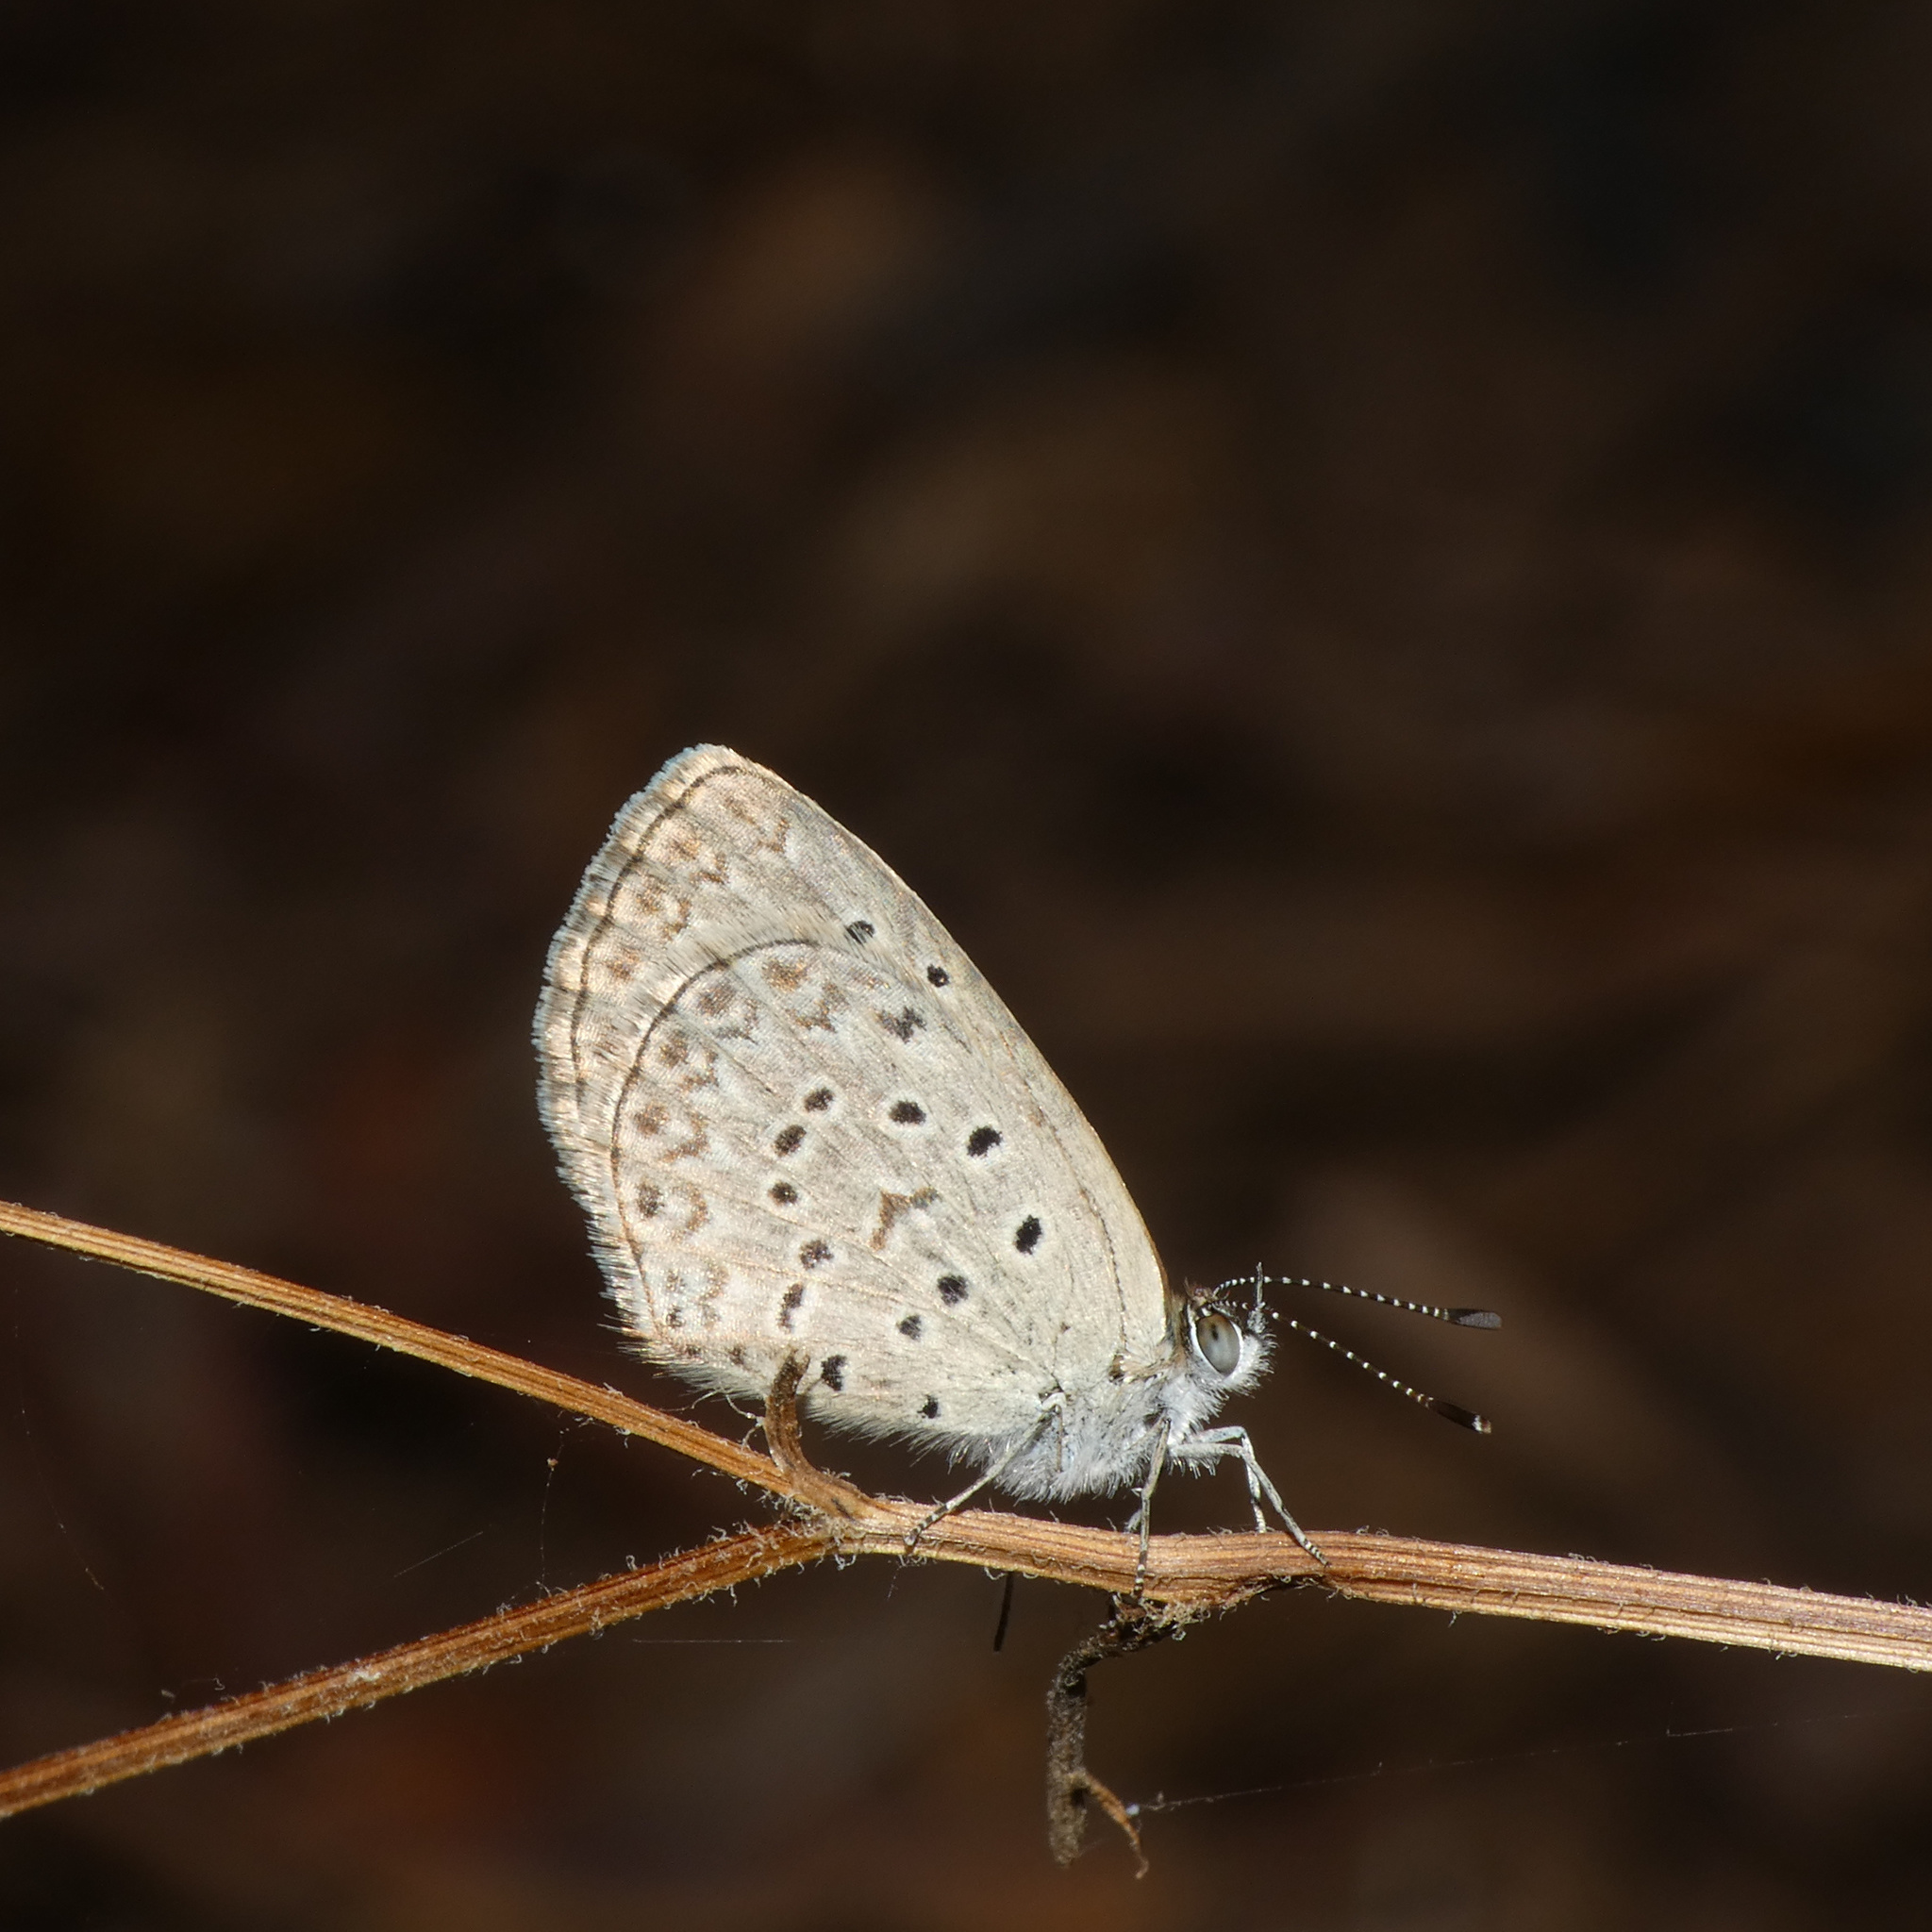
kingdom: Animalia
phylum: Arthropoda
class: Insecta
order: Lepidoptera
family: Lycaenidae
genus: Zizeeria
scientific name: Zizeeria knysna
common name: African grass blue
